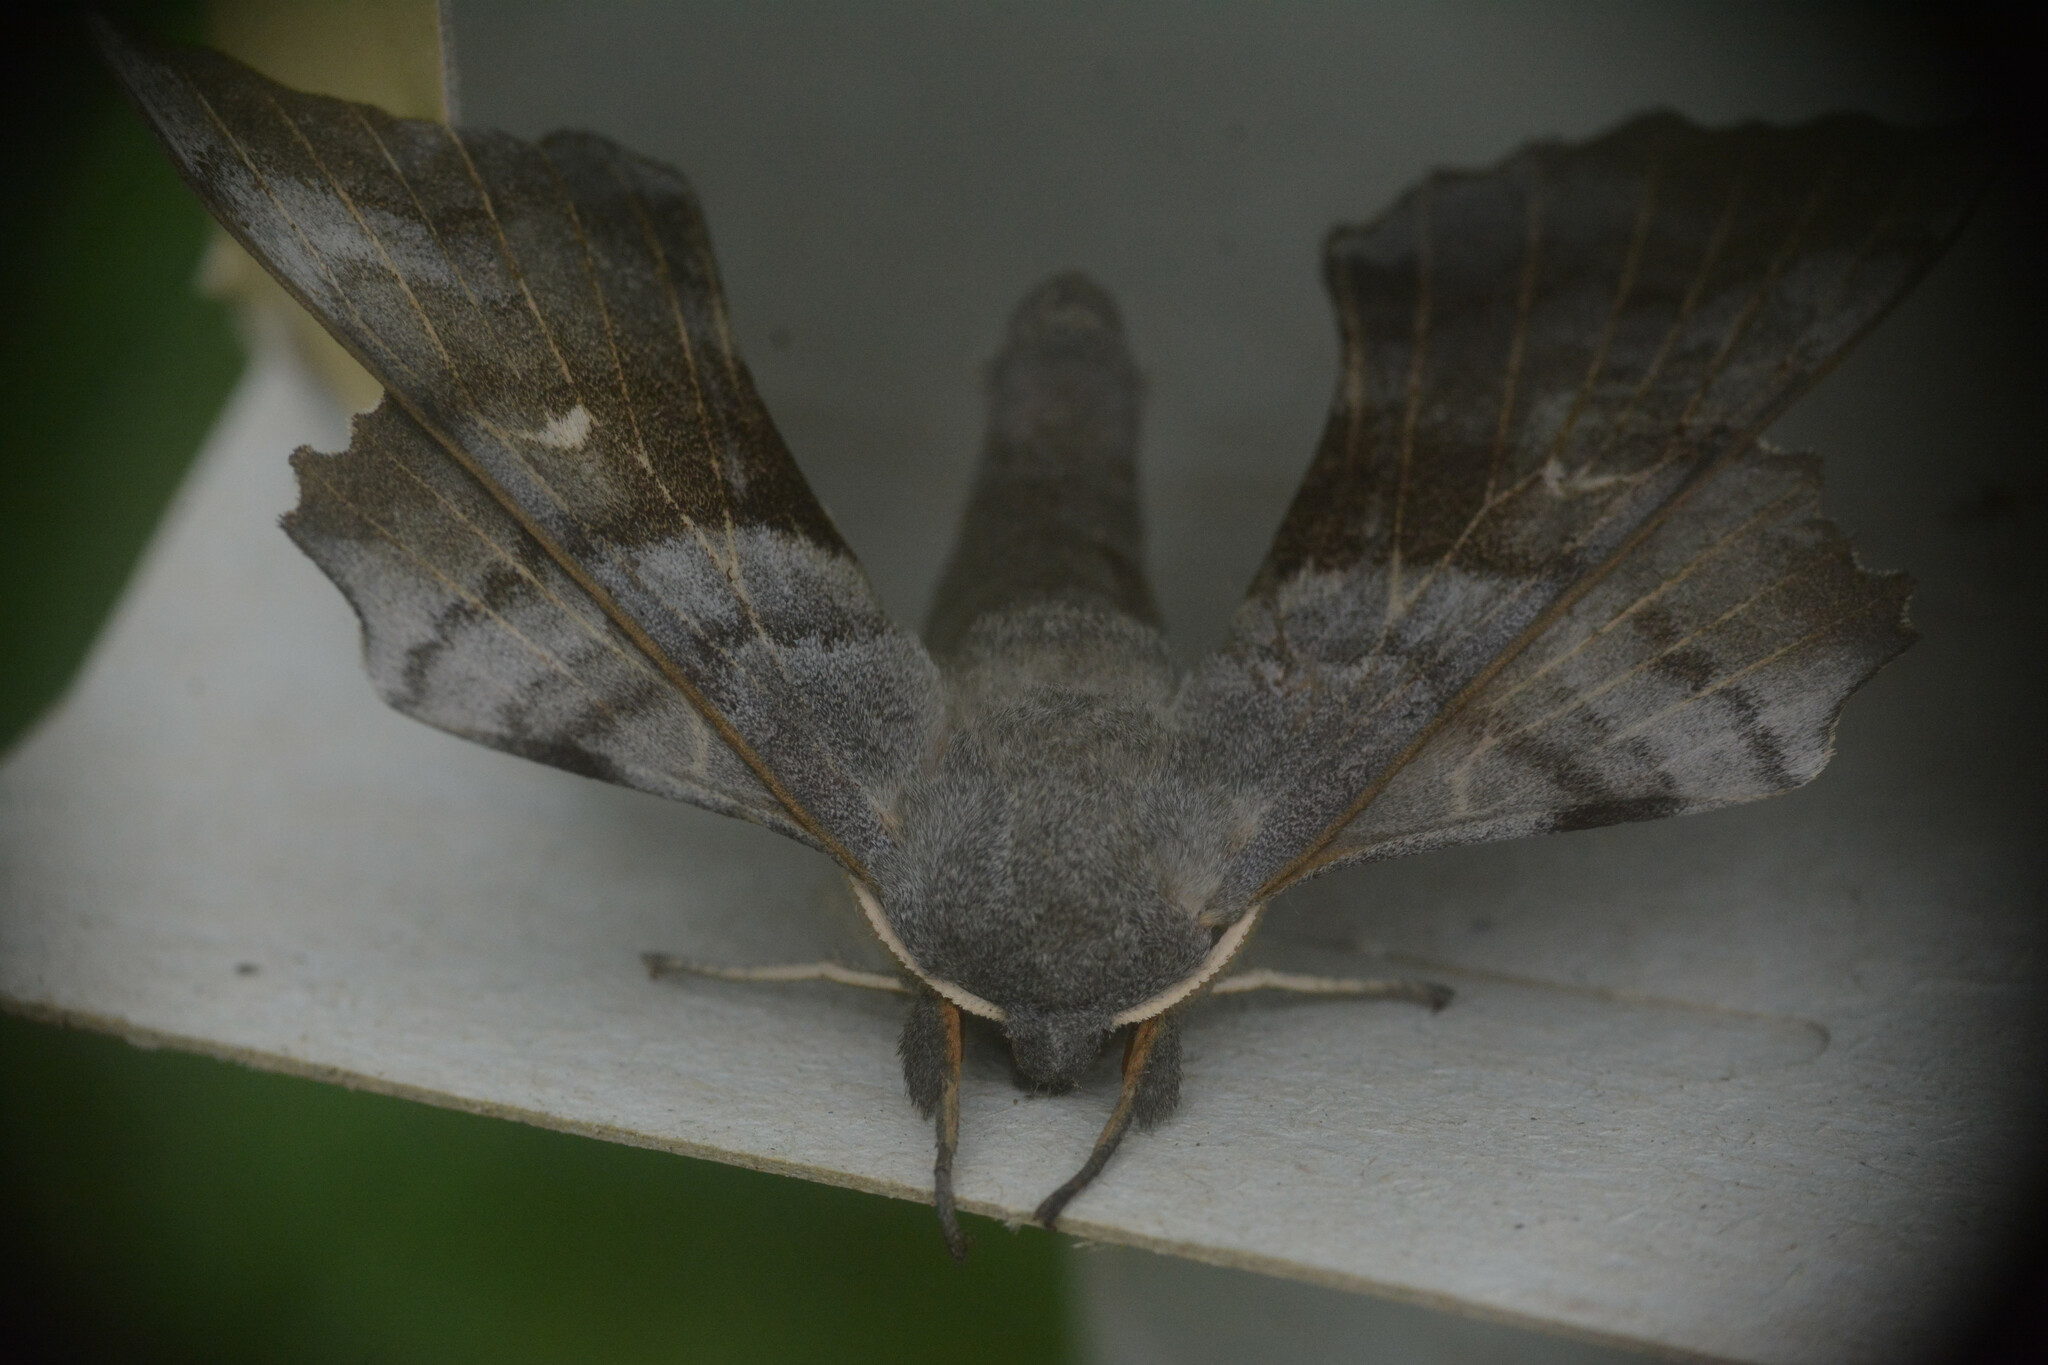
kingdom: Animalia
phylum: Arthropoda
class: Insecta
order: Lepidoptera
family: Sphingidae
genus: Laothoe
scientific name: Laothoe populi
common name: Poplar hawk-moth
